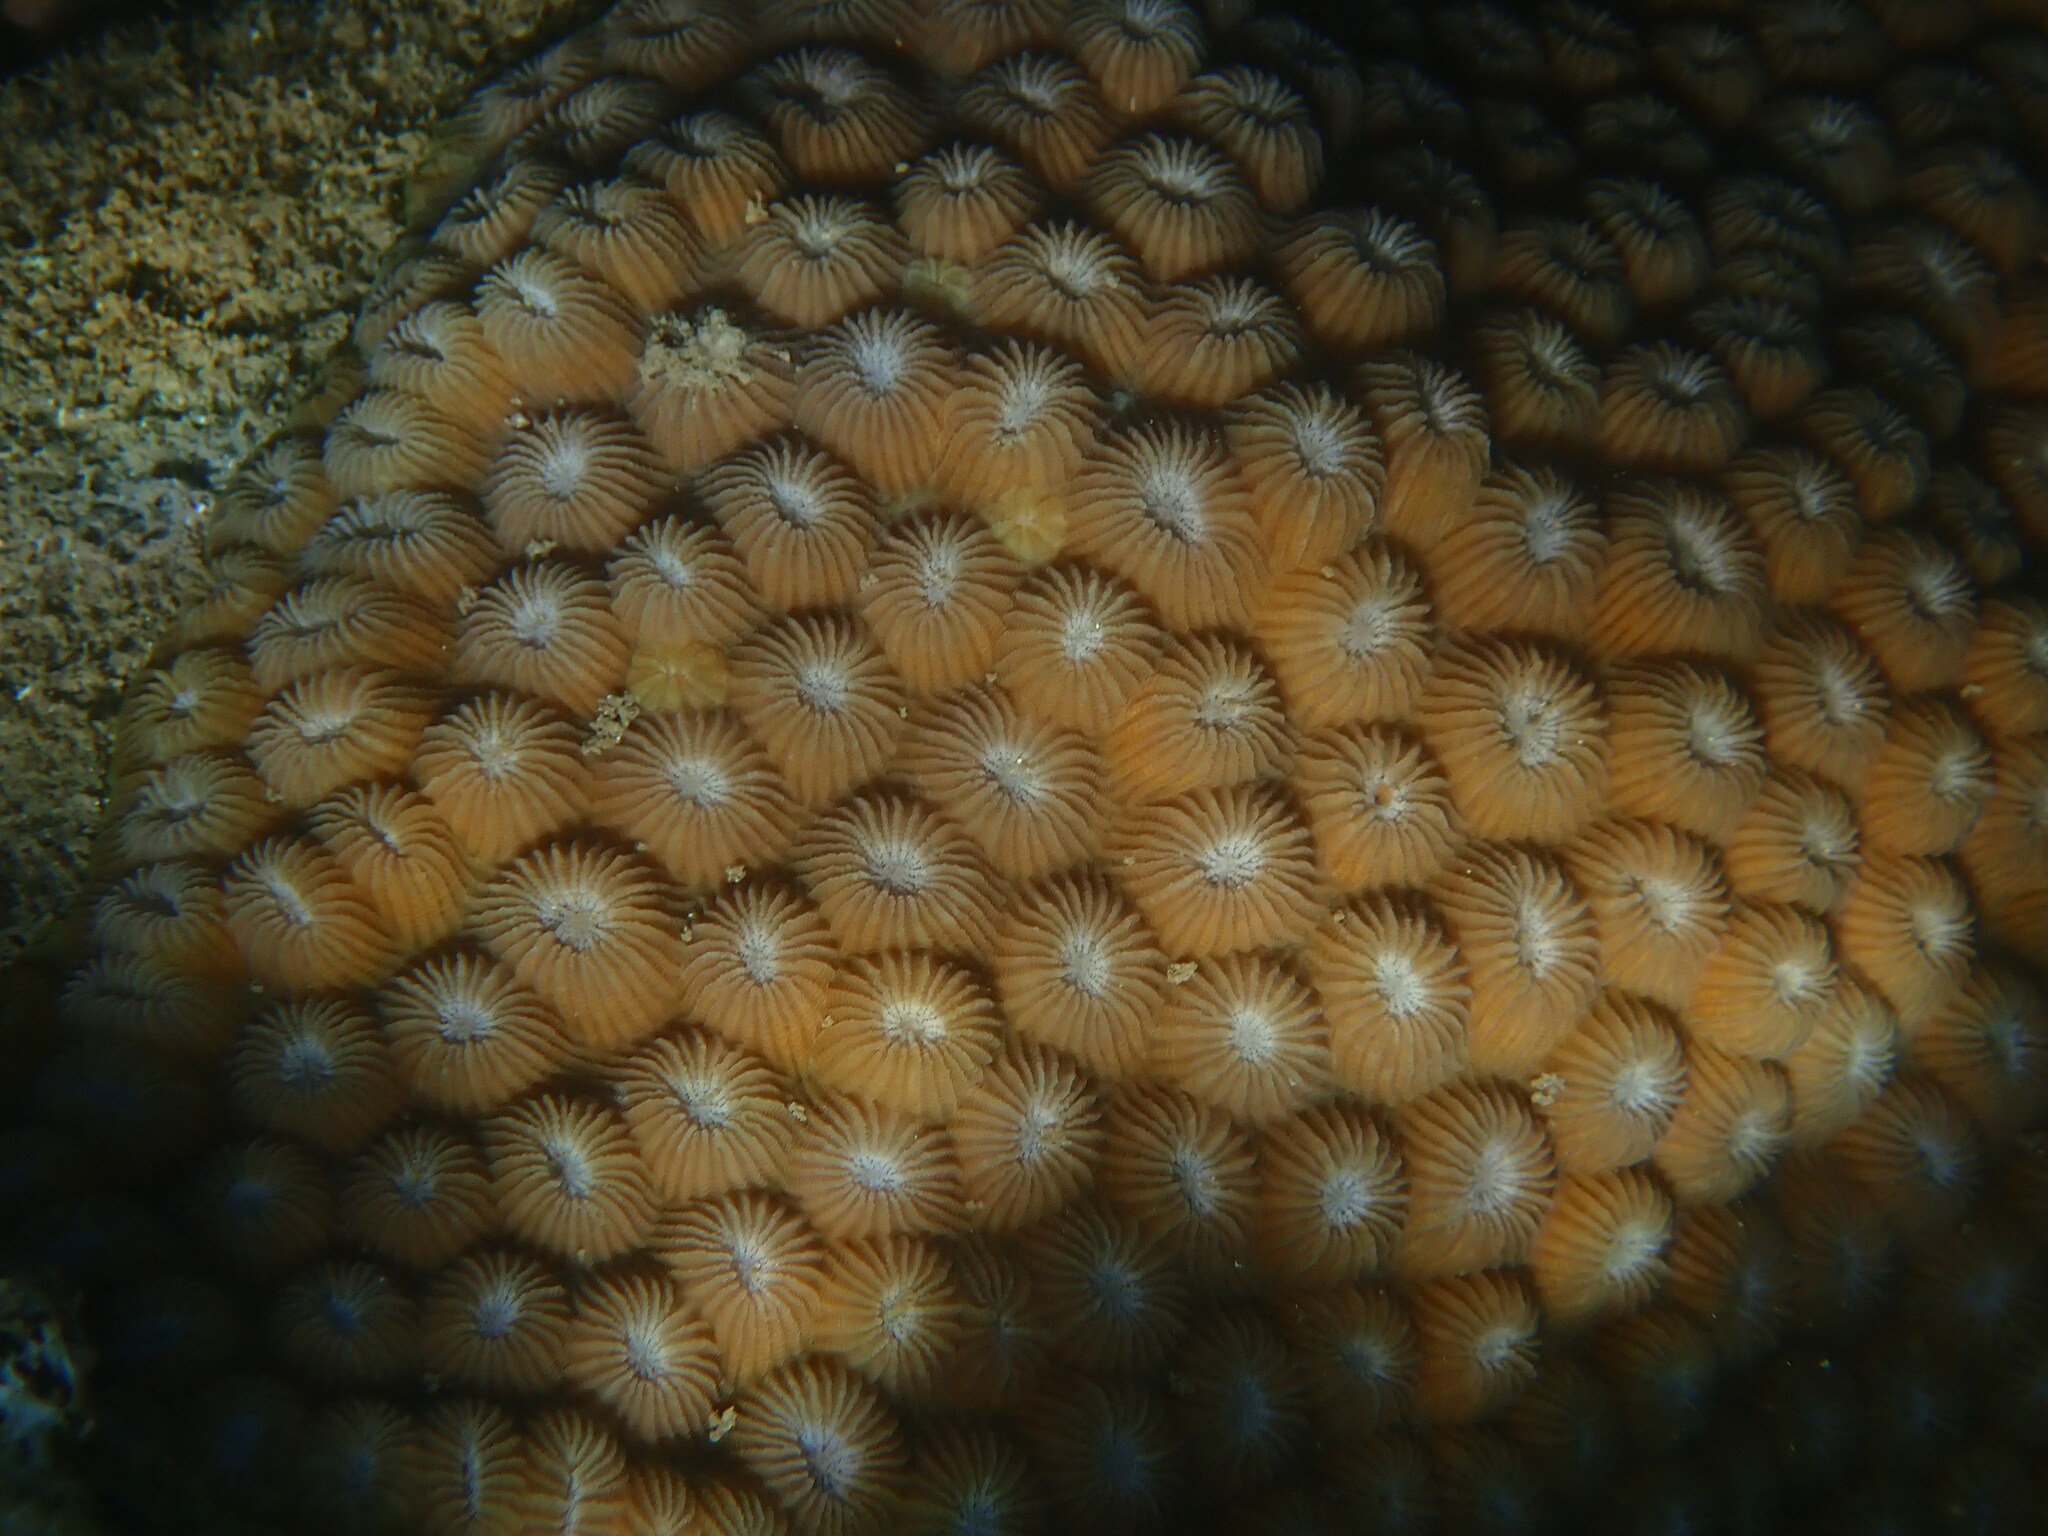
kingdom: Animalia
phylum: Cnidaria
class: Anthozoa
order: Scleractinia
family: Diploastraeidae
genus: Diploastrea
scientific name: Diploastrea heliopora
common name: Double-star coral
